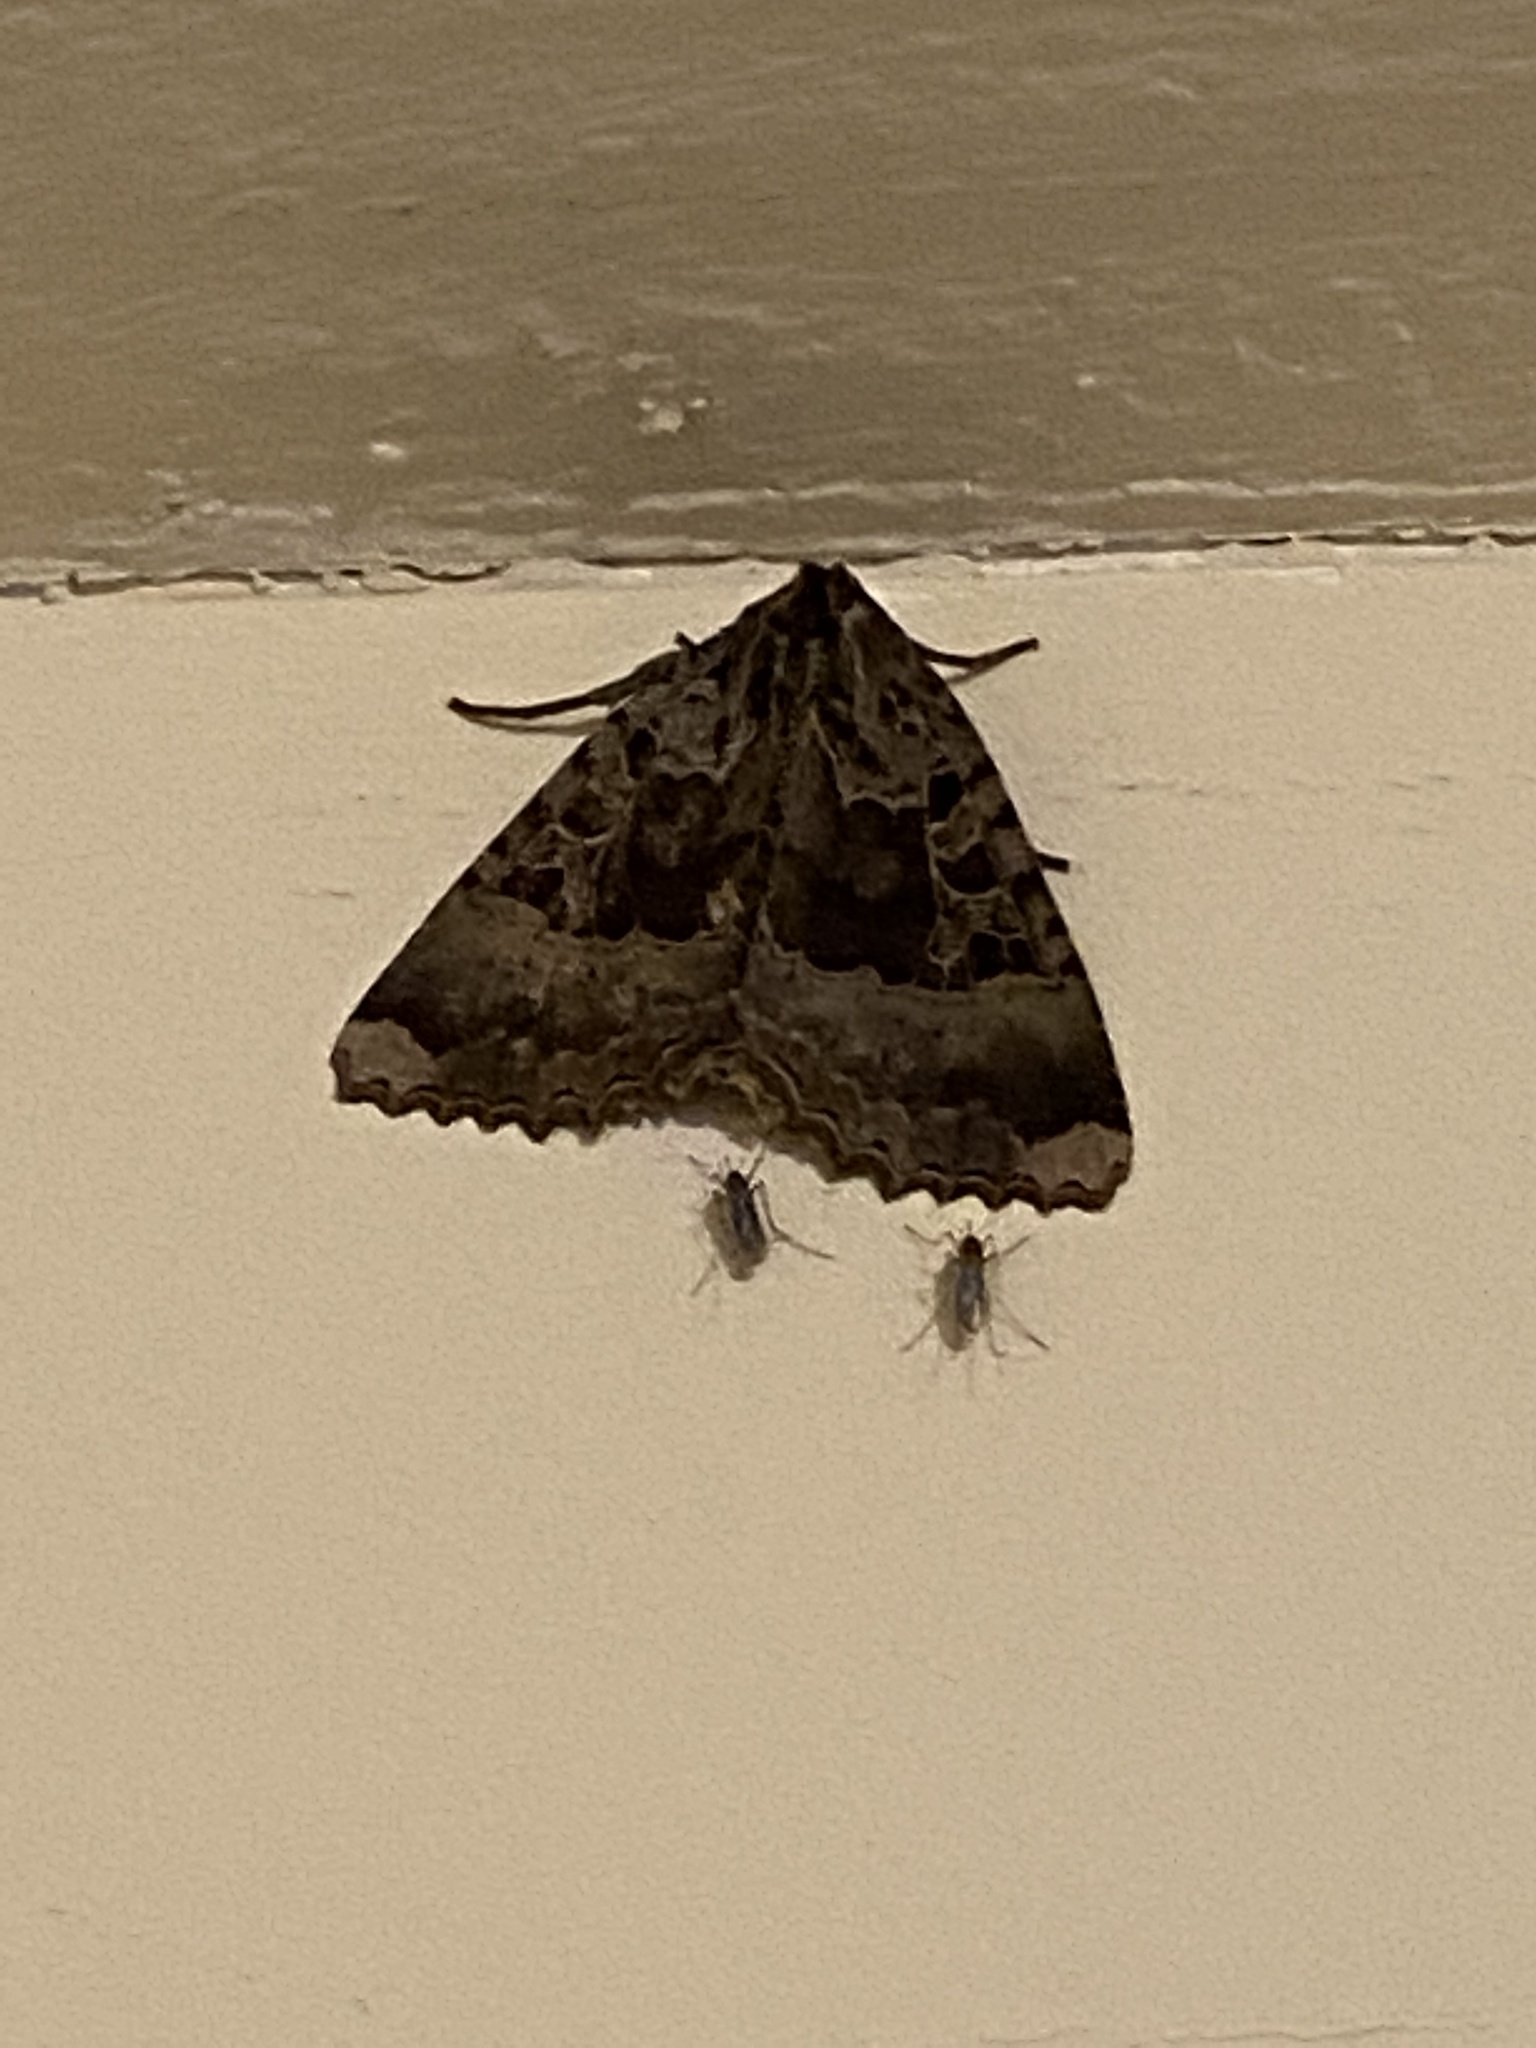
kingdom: Animalia
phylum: Arthropoda
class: Insecta
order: Lepidoptera
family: Noctuidae
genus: Mormo
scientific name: Mormo maura
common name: Old lady
